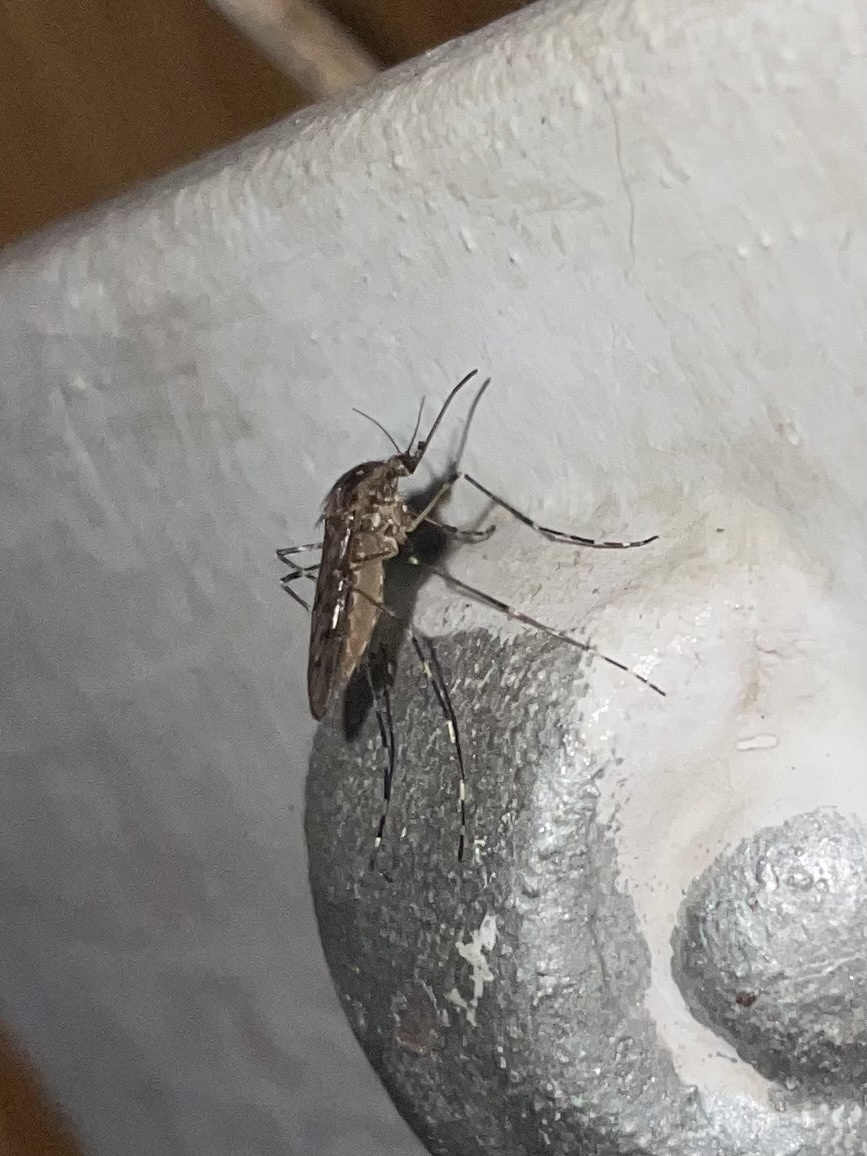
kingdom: Animalia
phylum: Arthropoda
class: Insecta
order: Diptera
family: Culicidae
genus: Culiseta
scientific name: Culiseta annulata
